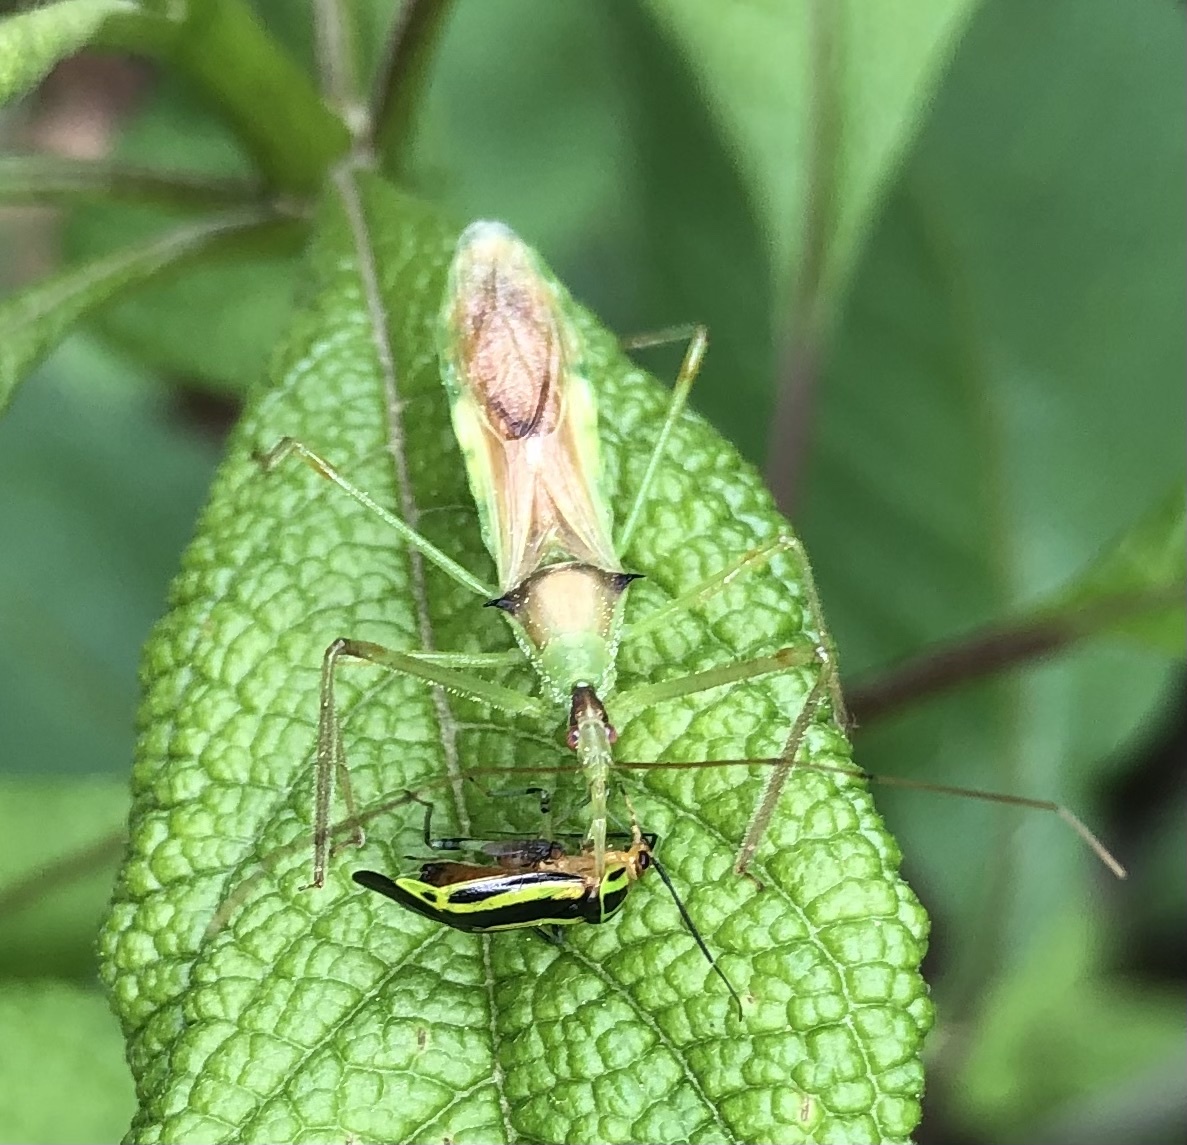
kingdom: Animalia
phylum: Arthropoda
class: Insecta
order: Hemiptera
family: Reduviidae
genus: Zelus
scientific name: Zelus luridus
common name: Pale green assassin bug
